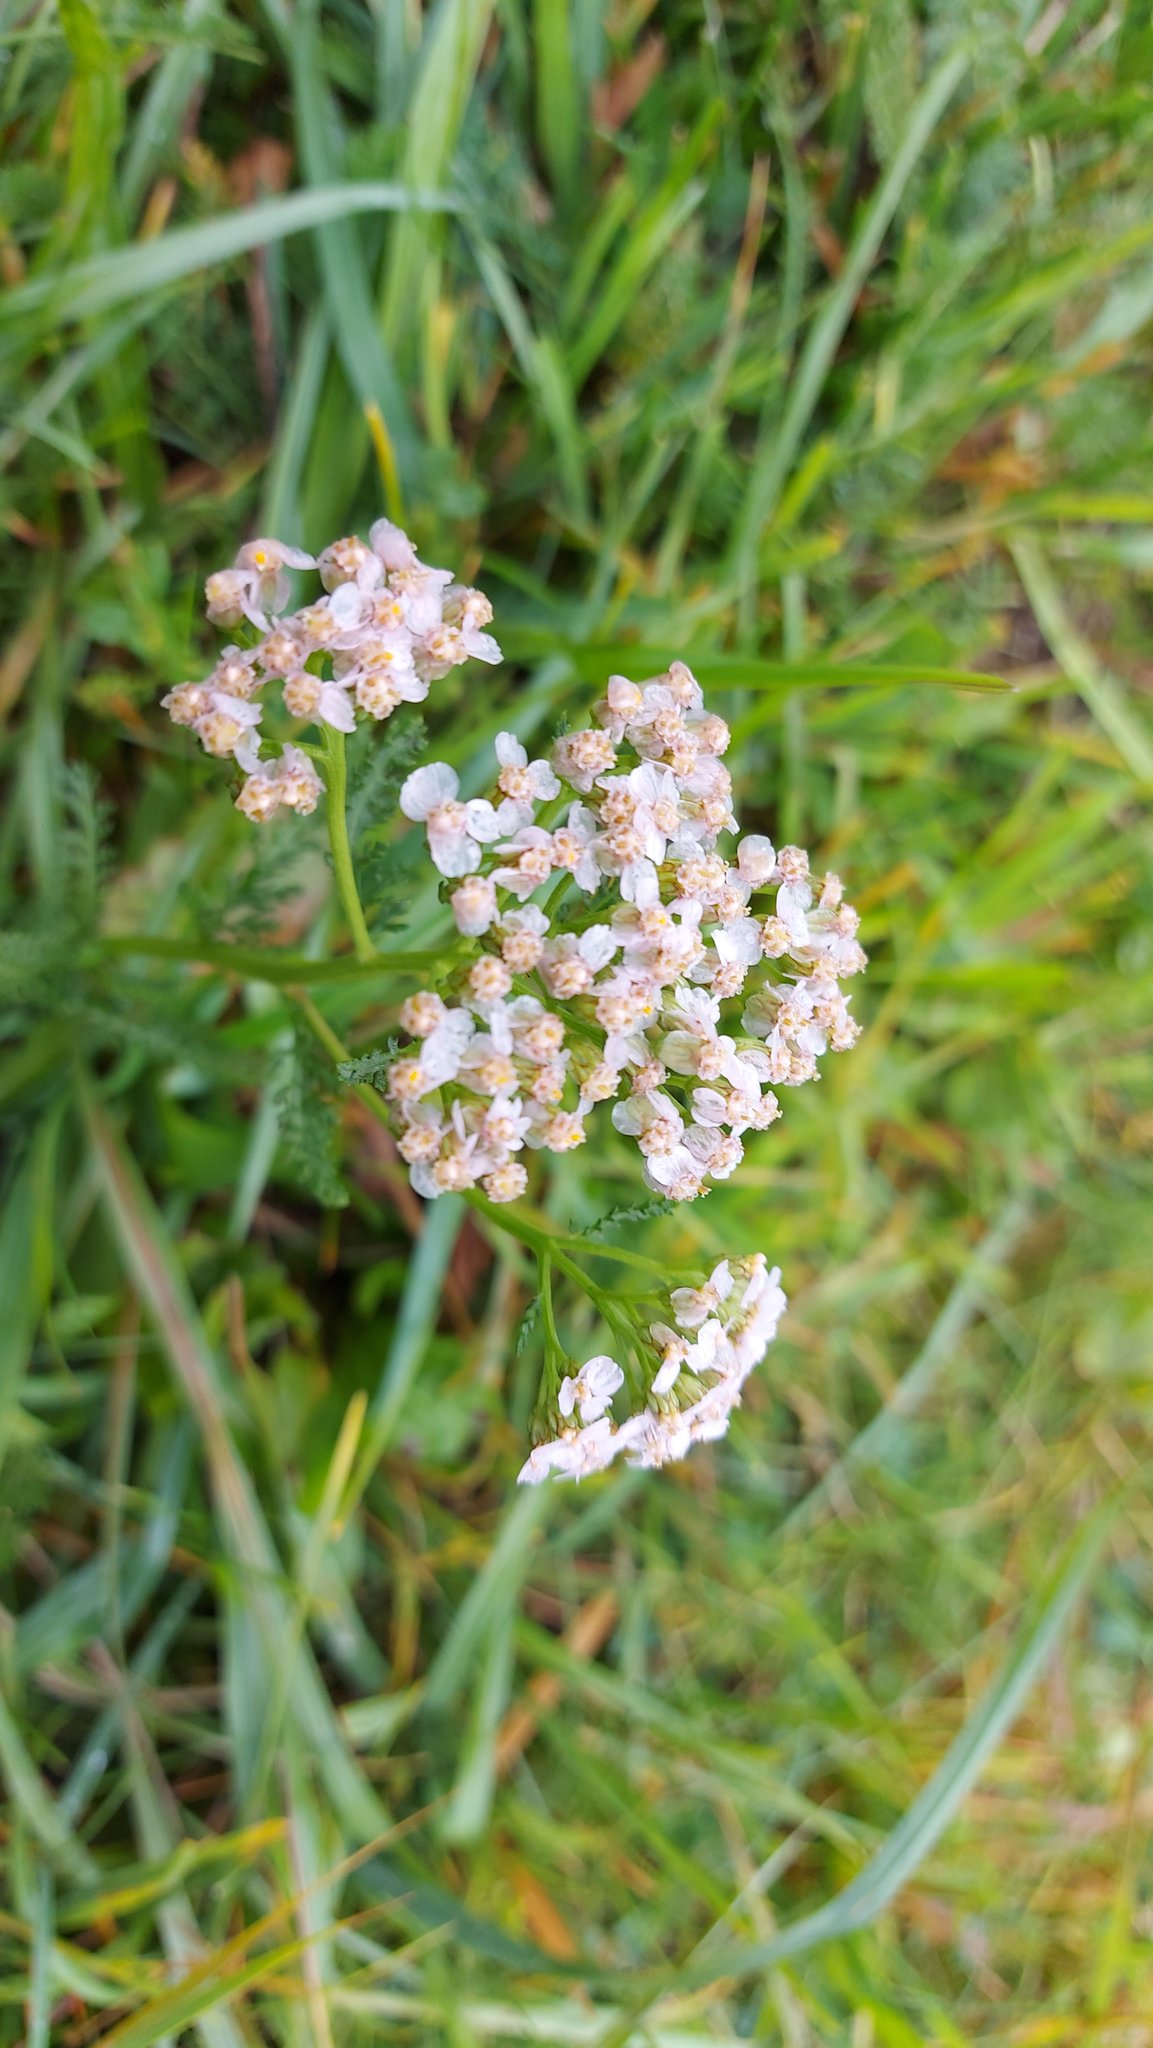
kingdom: Plantae
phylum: Tracheophyta
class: Magnoliopsida
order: Asterales
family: Asteraceae
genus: Achillea
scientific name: Achillea millefolium
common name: Yarrow
